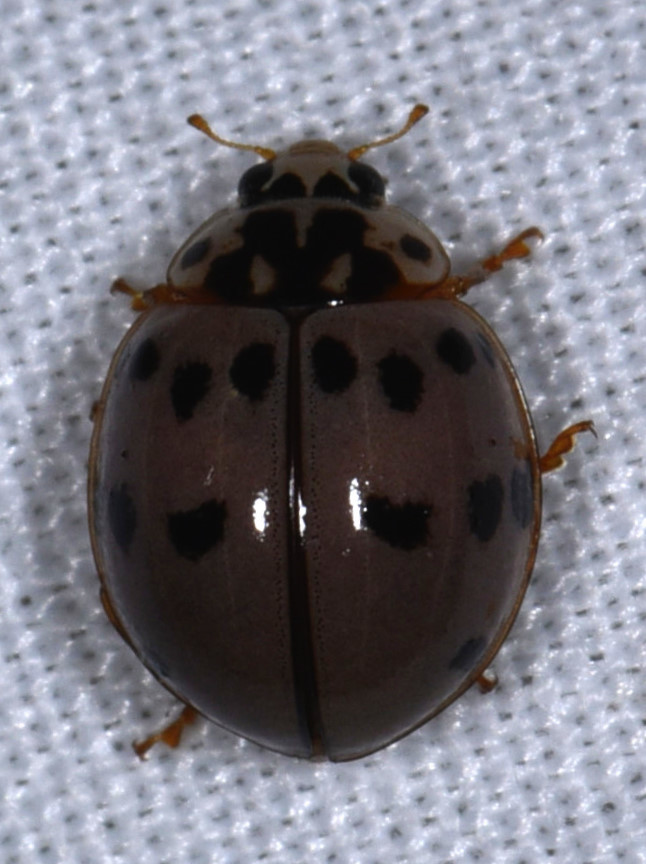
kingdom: Animalia
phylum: Arthropoda
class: Insecta
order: Coleoptera
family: Coccinellidae
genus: Olla
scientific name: Olla v-nigrum
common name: Ashy gray lady beetle
